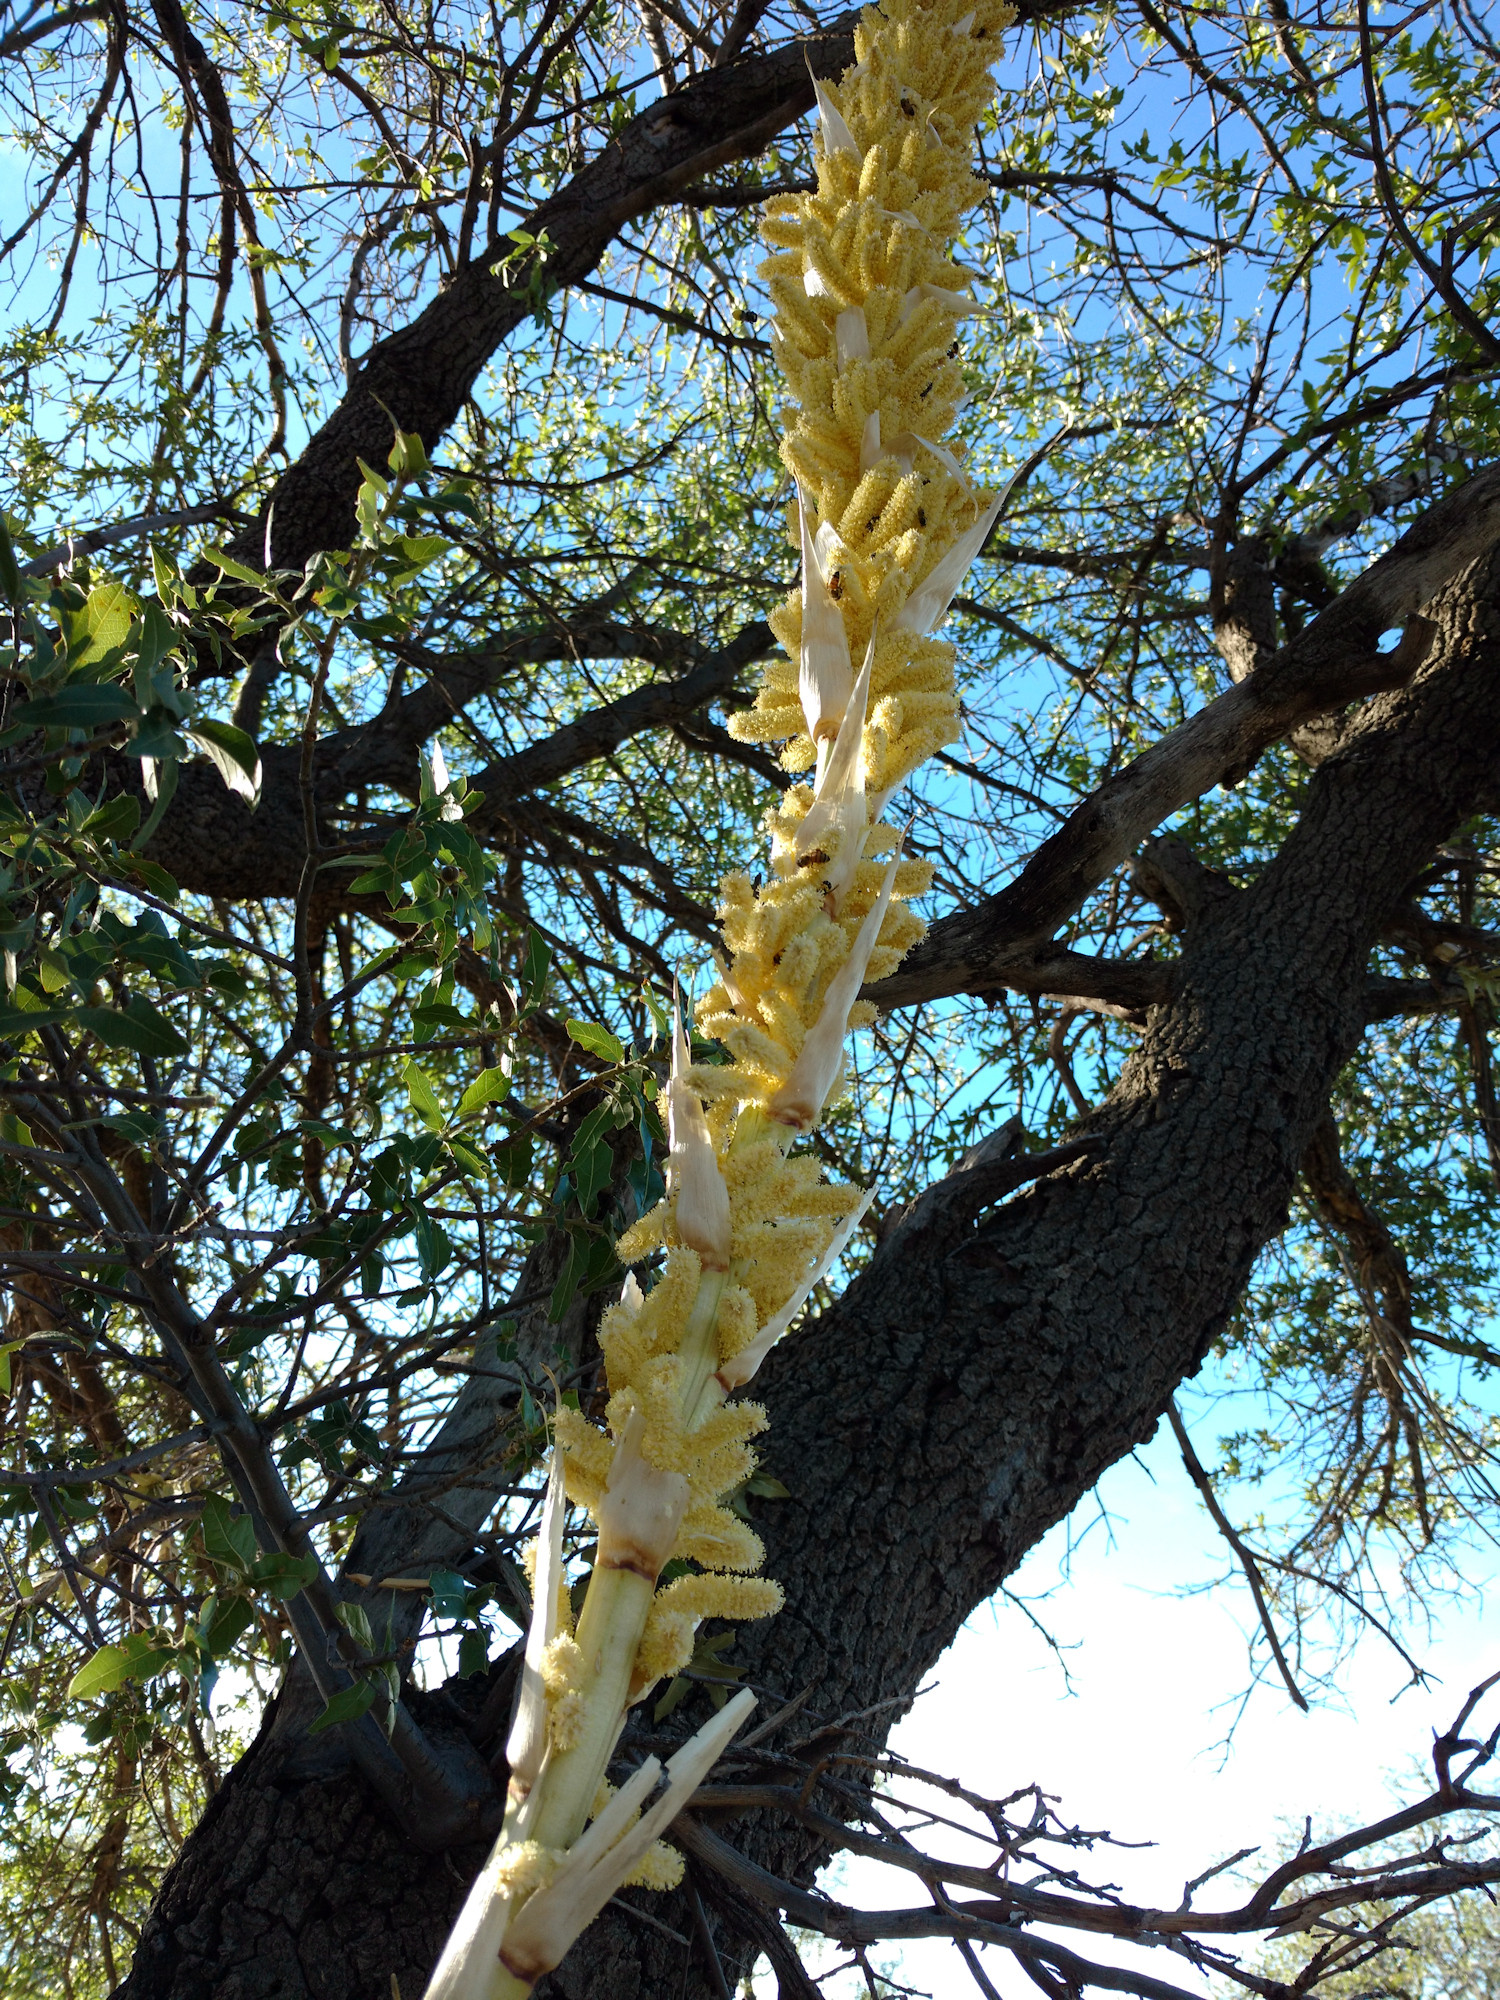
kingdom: Plantae
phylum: Tracheophyta
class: Liliopsida
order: Asparagales
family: Asparagaceae
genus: Dasylirion
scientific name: Dasylirion leiophyllum
